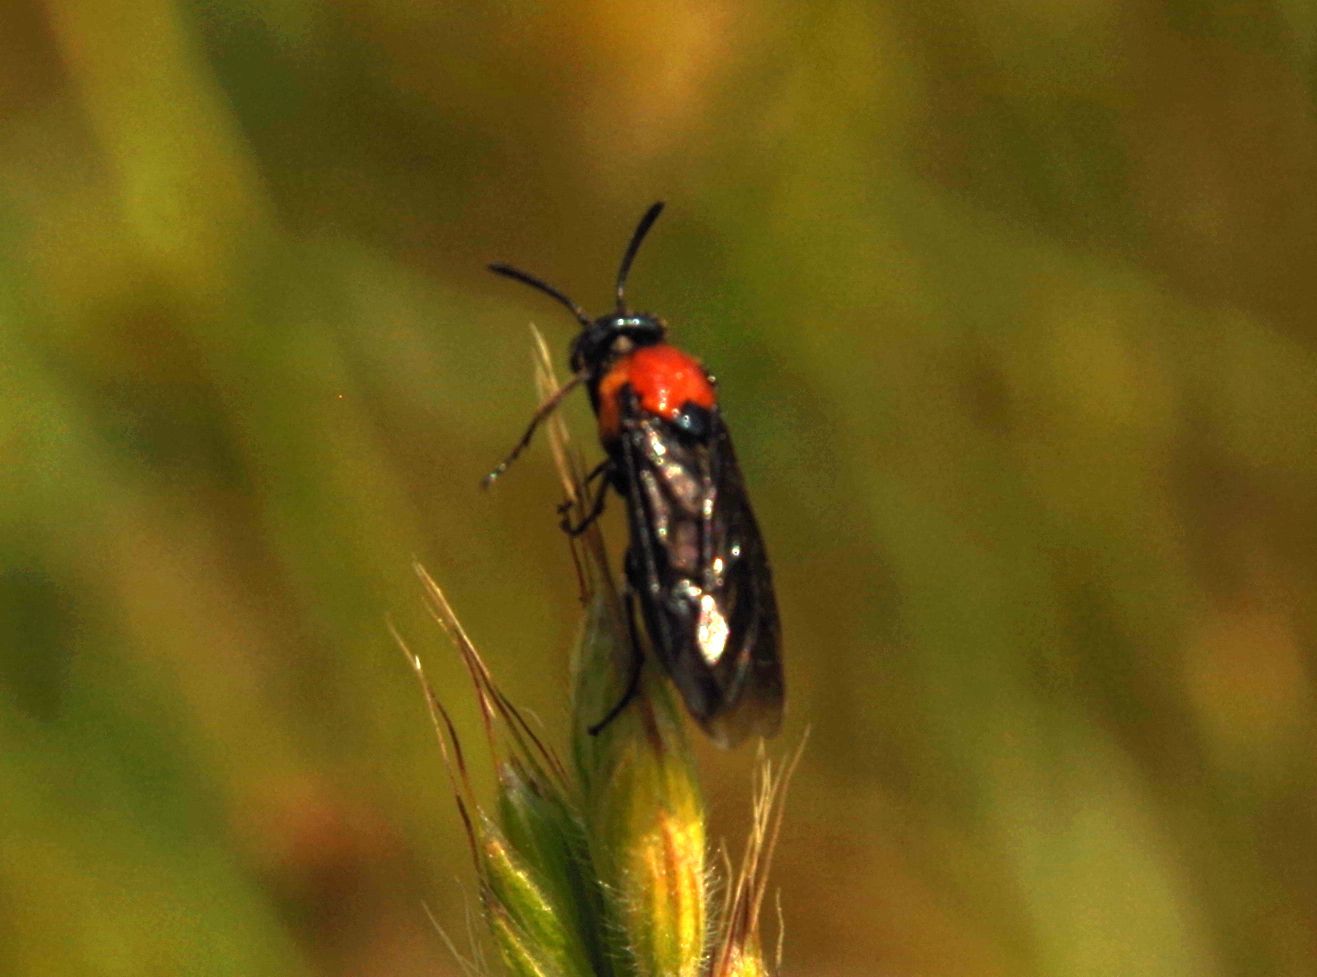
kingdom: Animalia
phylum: Arthropoda
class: Insecta
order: Hymenoptera
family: Argidae
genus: Arge
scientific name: Arge pleuritica
